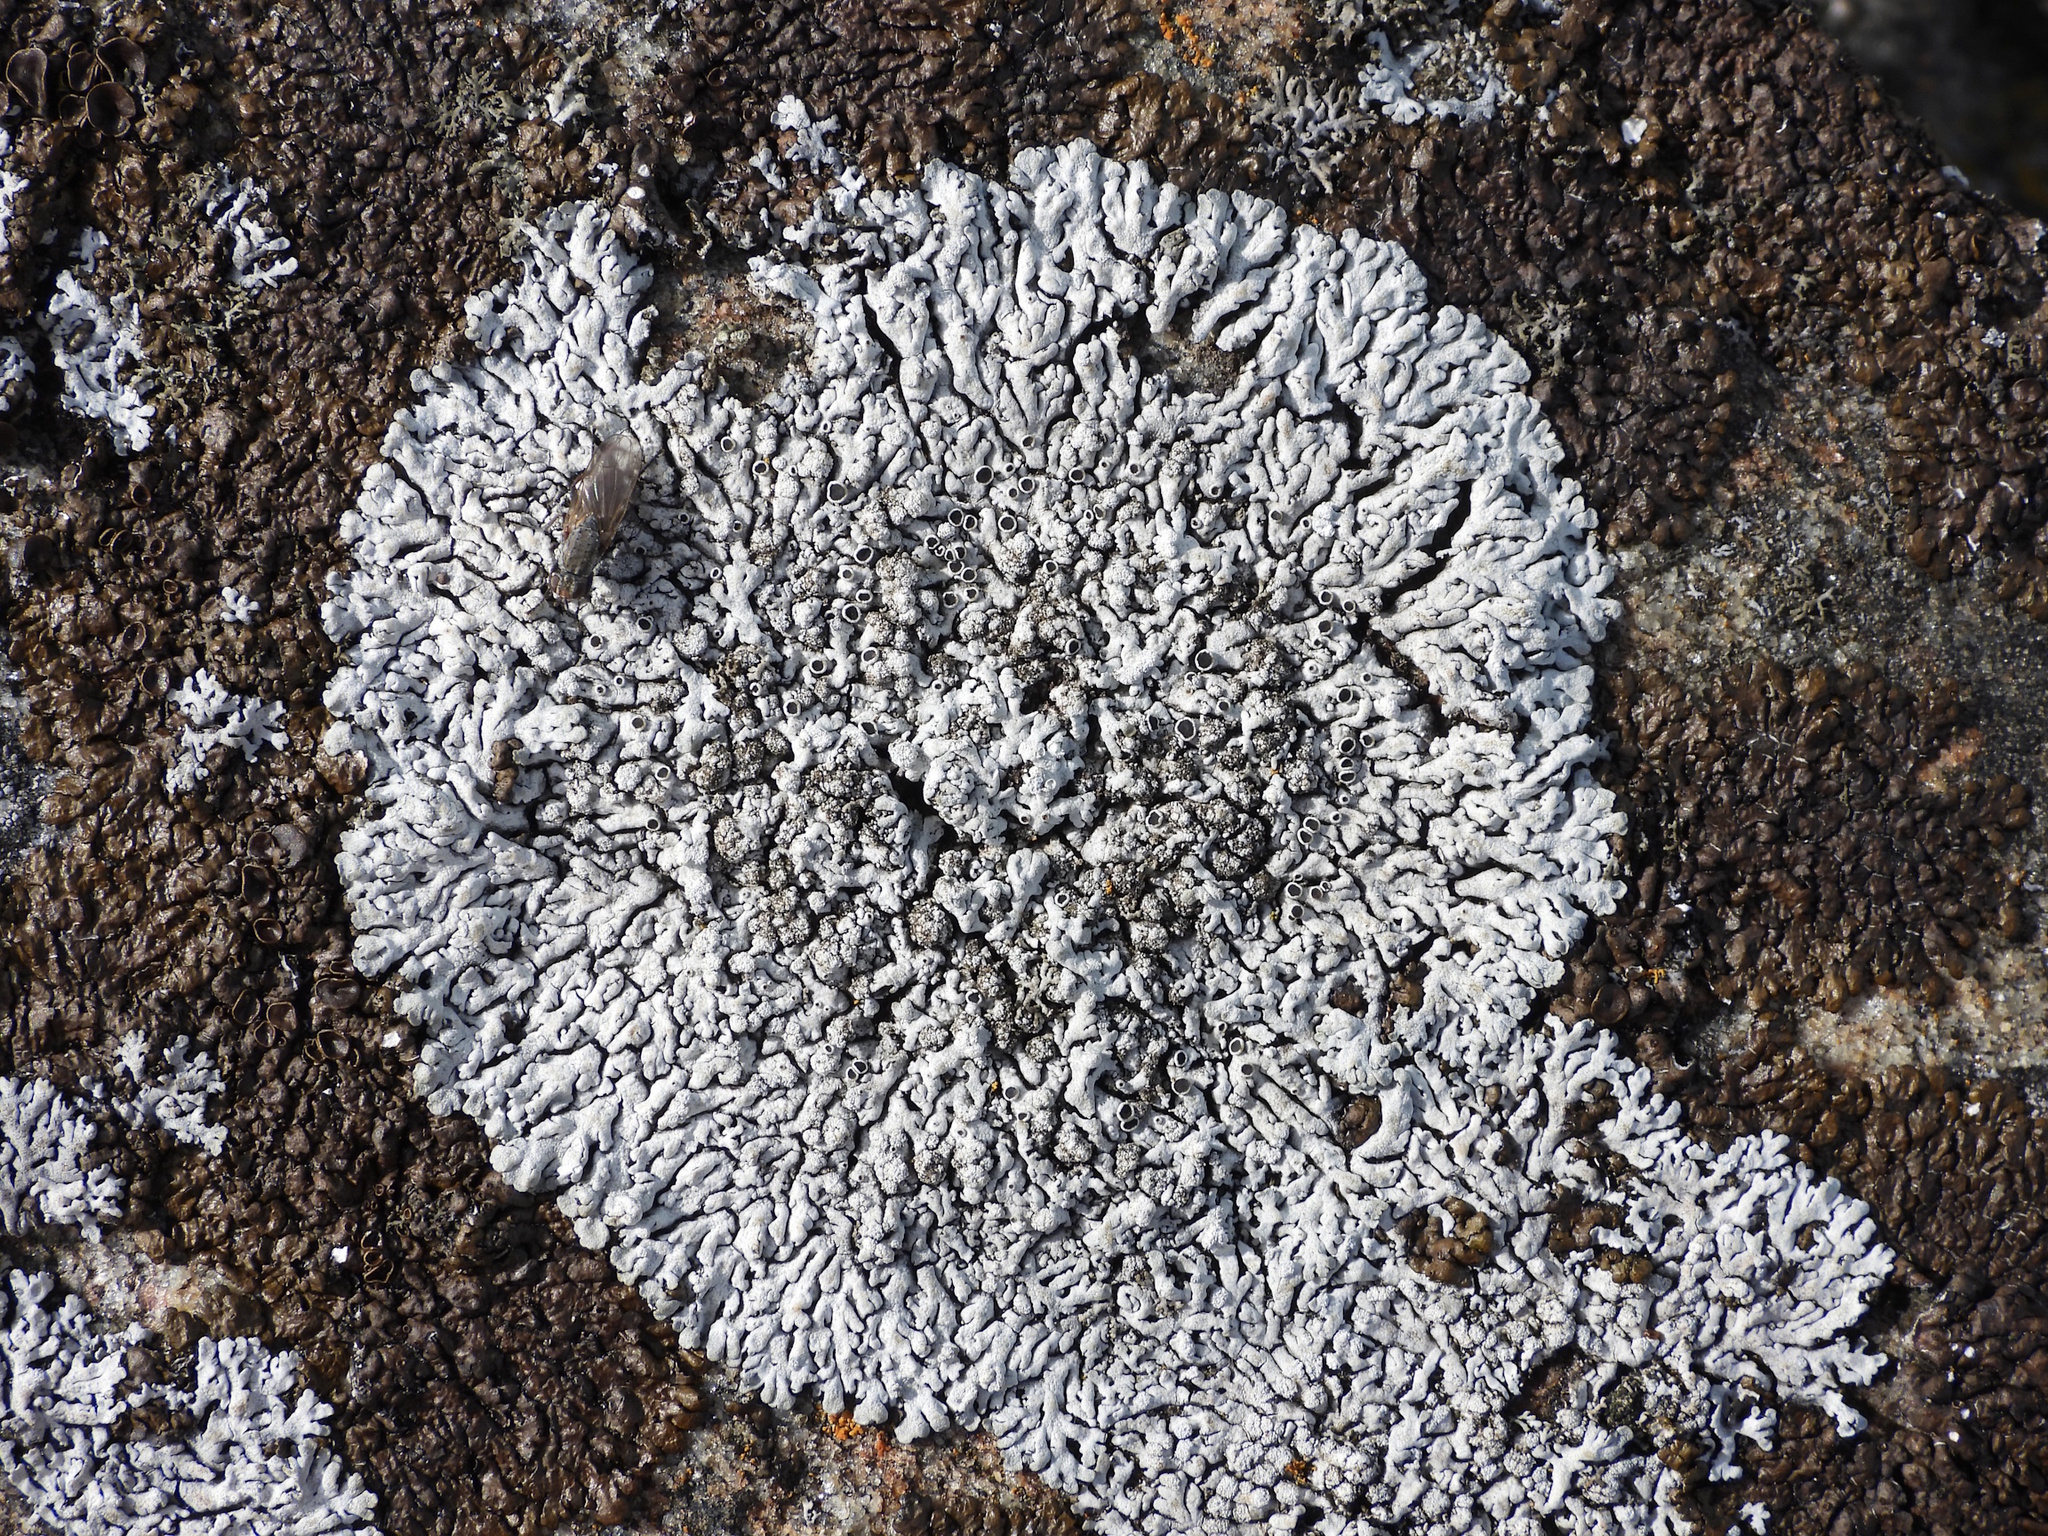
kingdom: Fungi
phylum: Ascomycota
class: Lecanoromycetes
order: Caliciales
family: Physciaceae
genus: Physcia
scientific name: Physcia caesia
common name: Blue-gray rosette lichen
